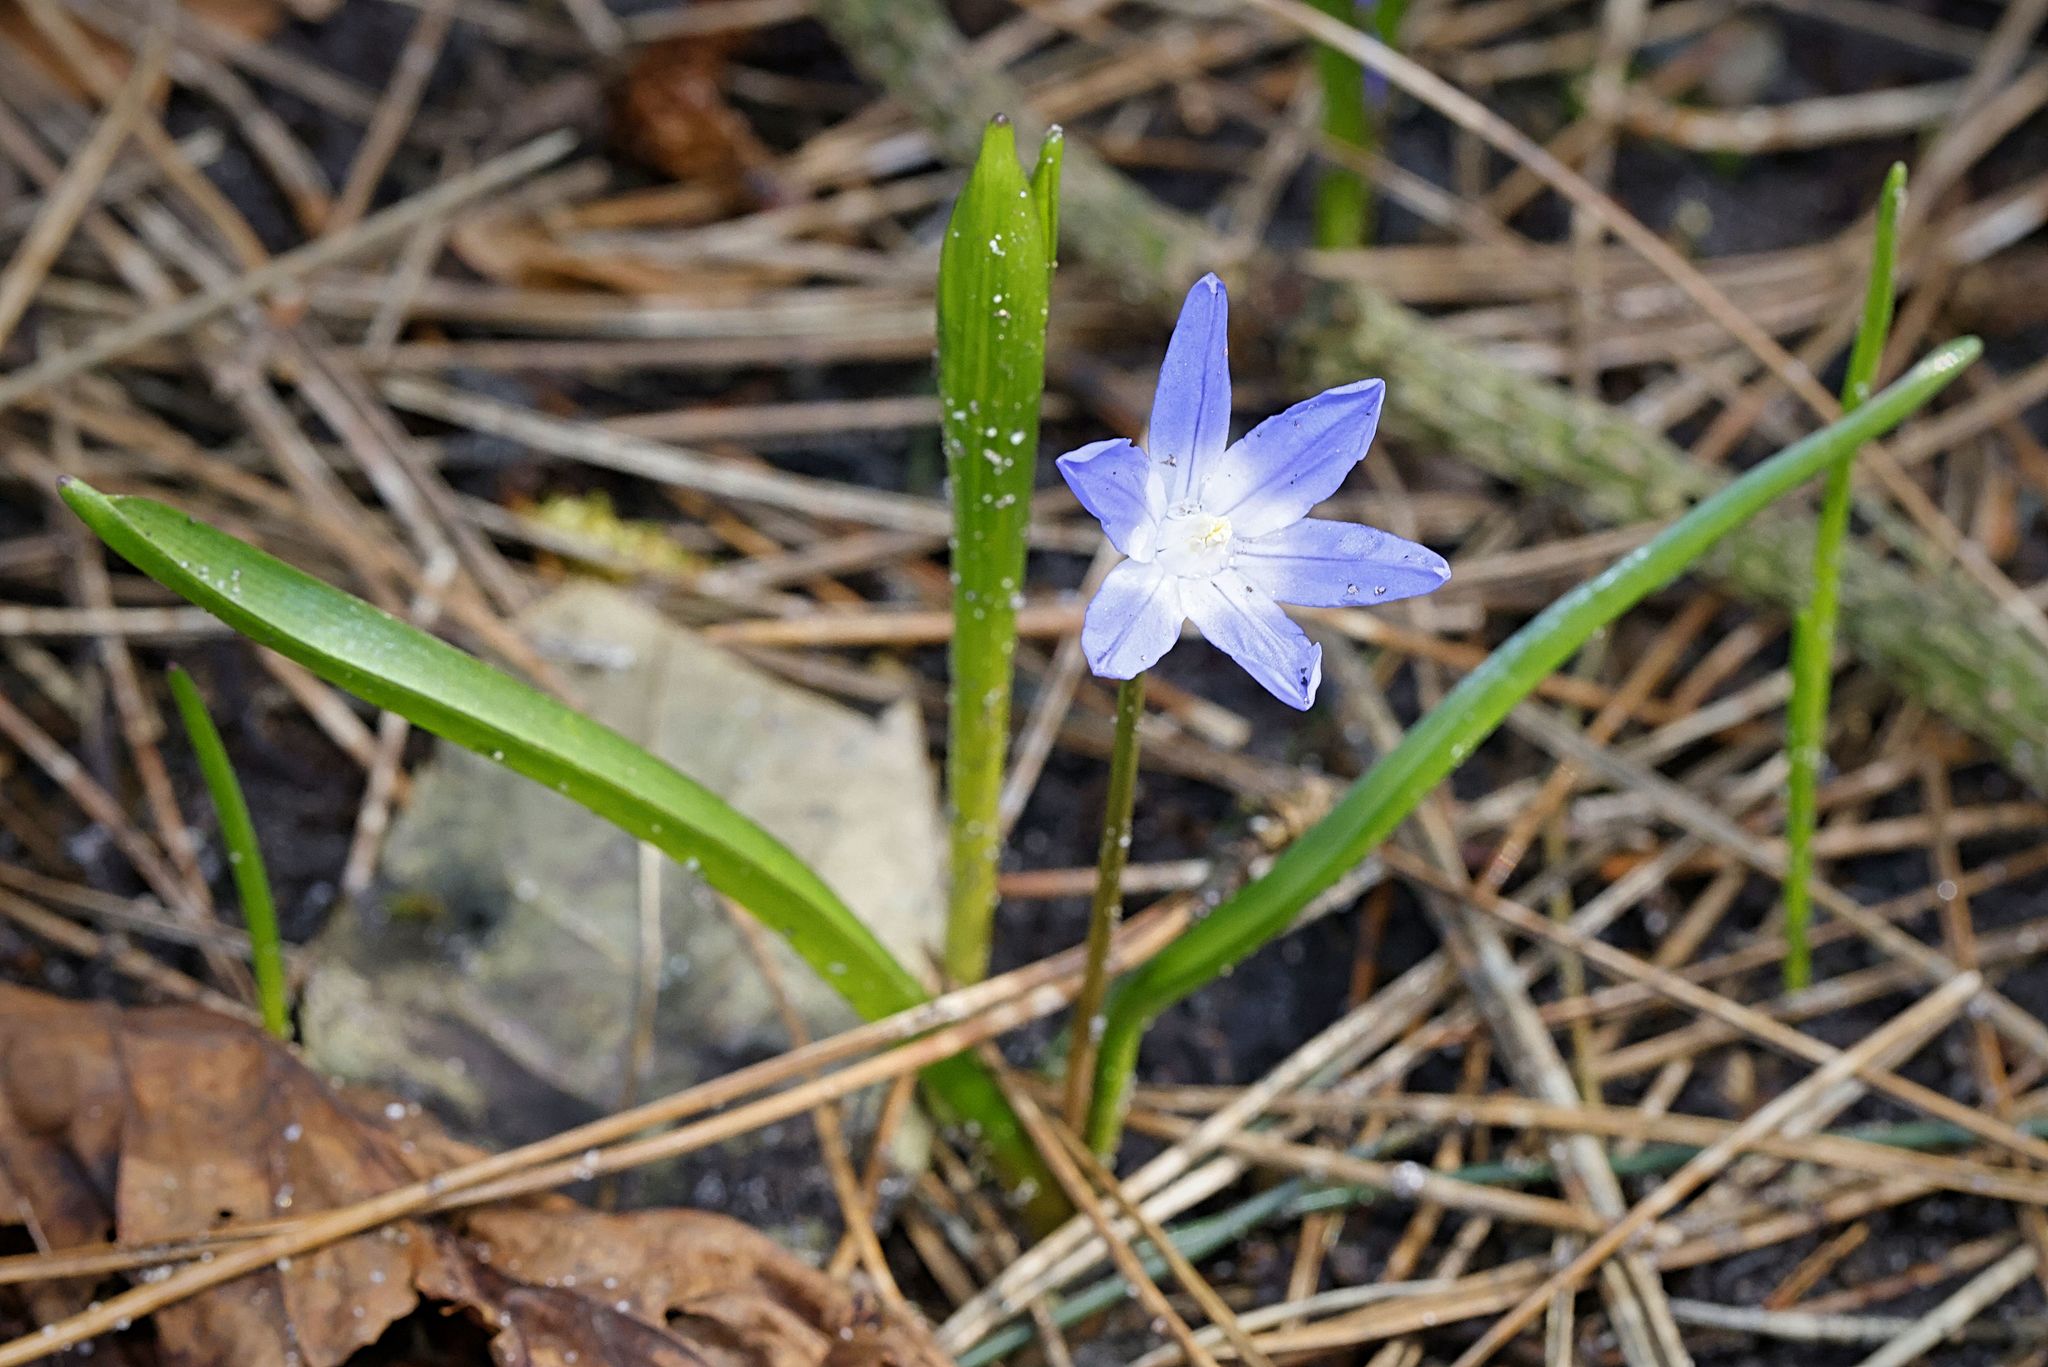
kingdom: Plantae
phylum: Tracheophyta
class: Liliopsida
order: Asparagales
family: Asparagaceae
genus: Scilla
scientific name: Scilla forbesii
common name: Glory-of-the-snow
